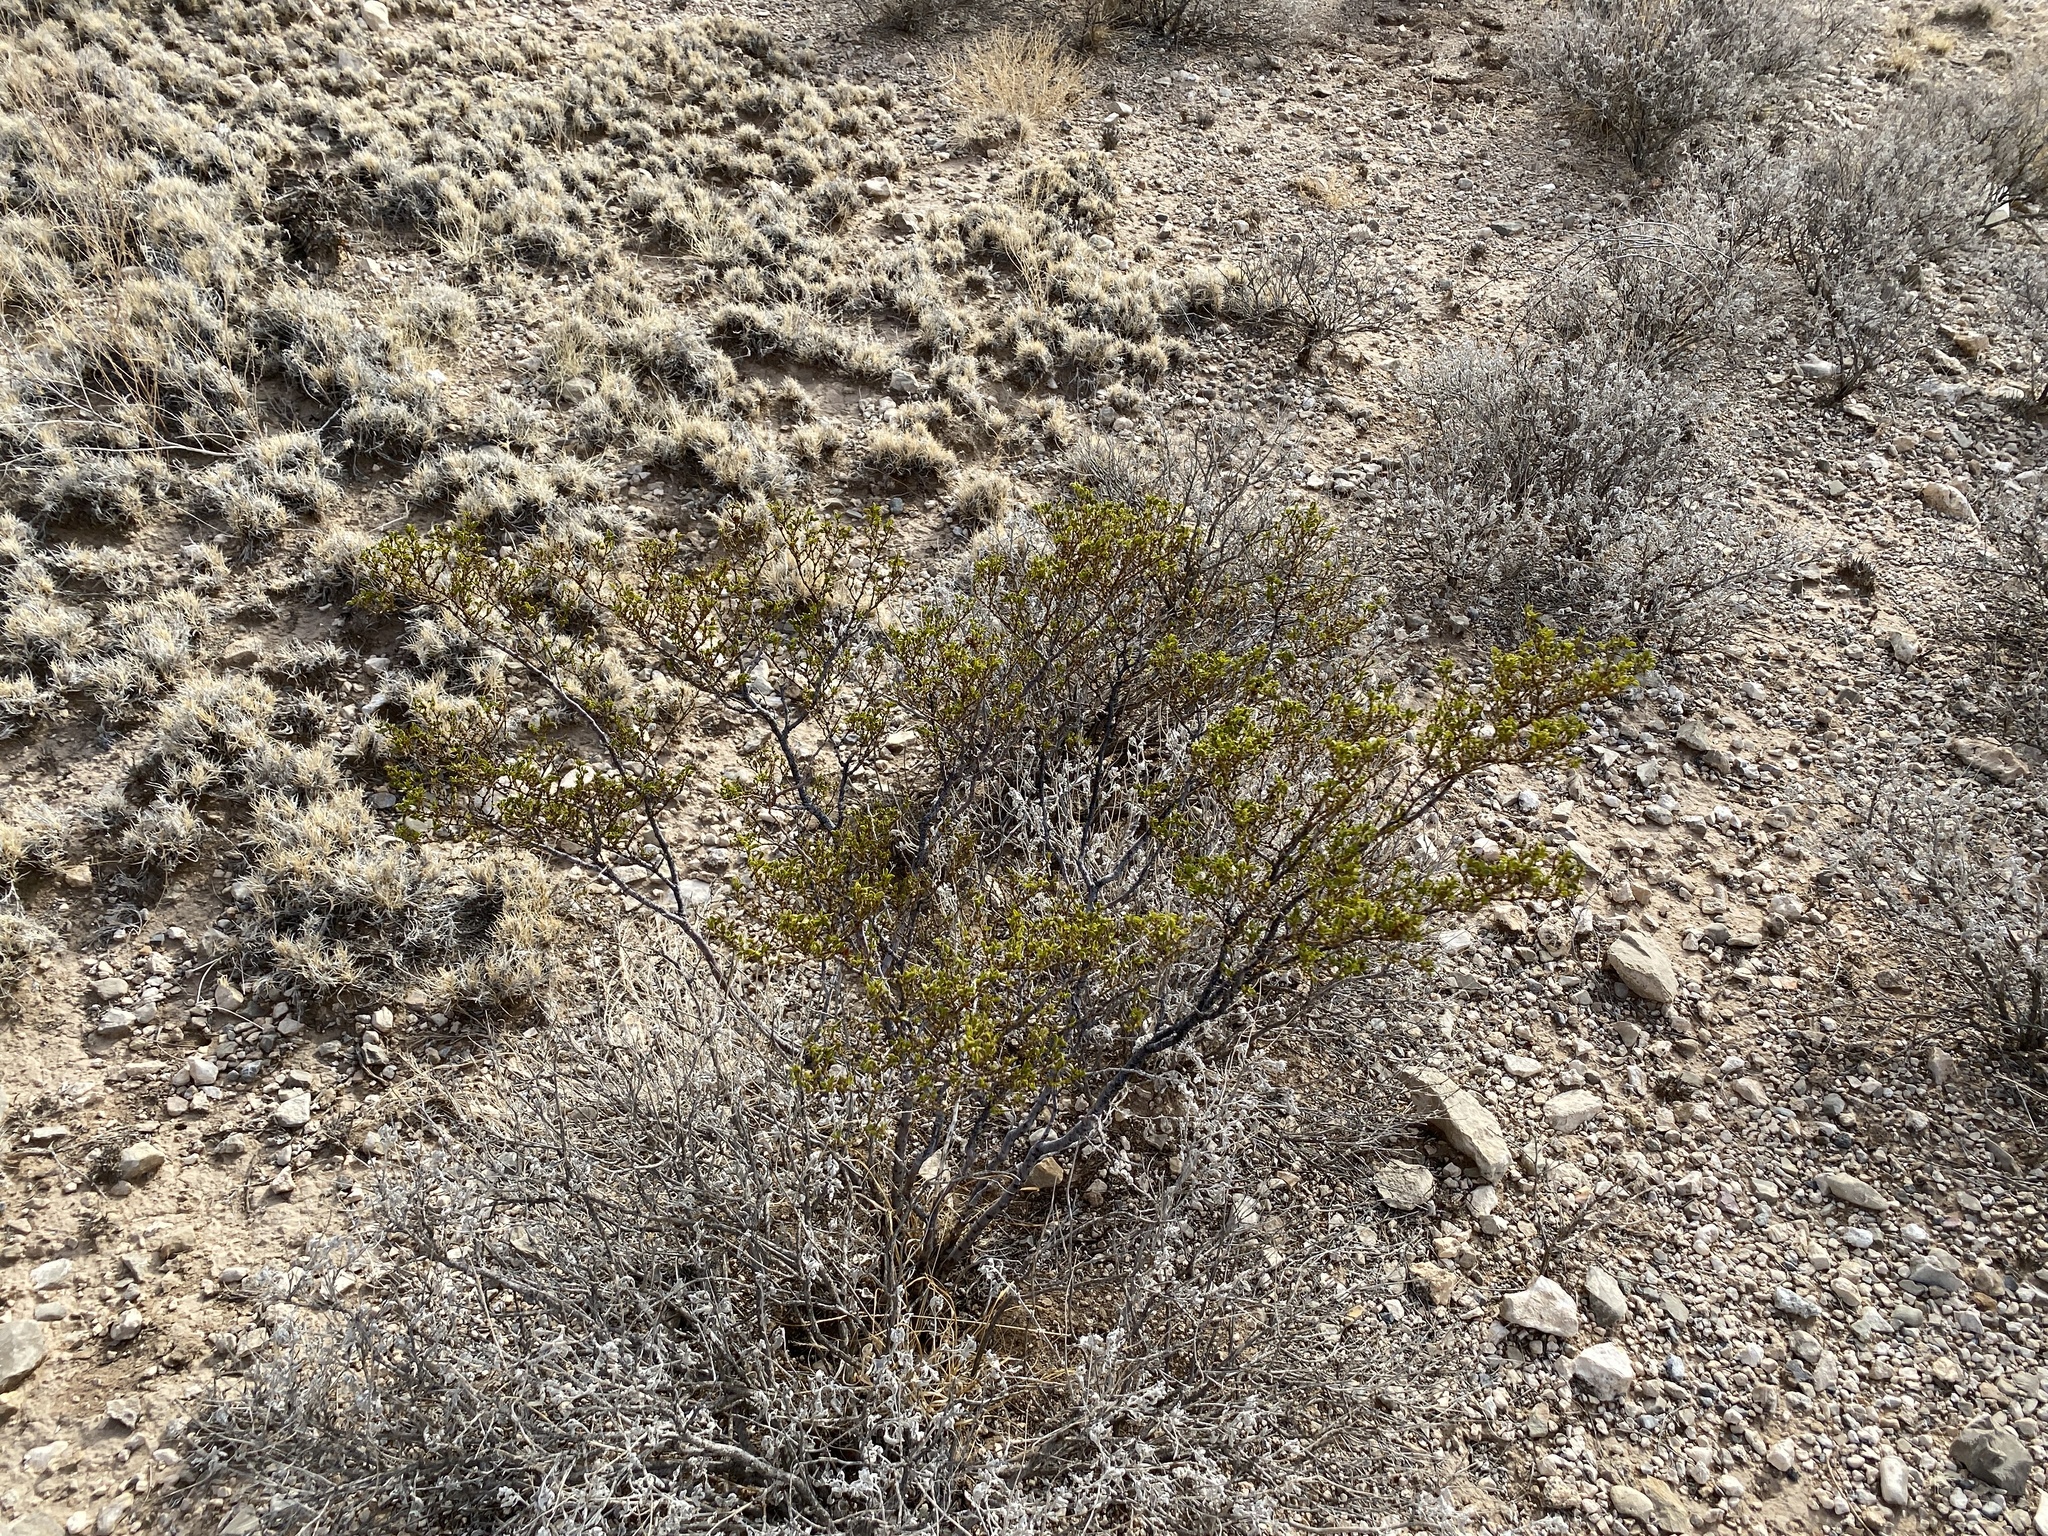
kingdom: Plantae
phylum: Tracheophyta
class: Magnoliopsida
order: Zygophyllales
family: Zygophyllaceae
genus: Larrea
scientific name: Larrea tridentata
